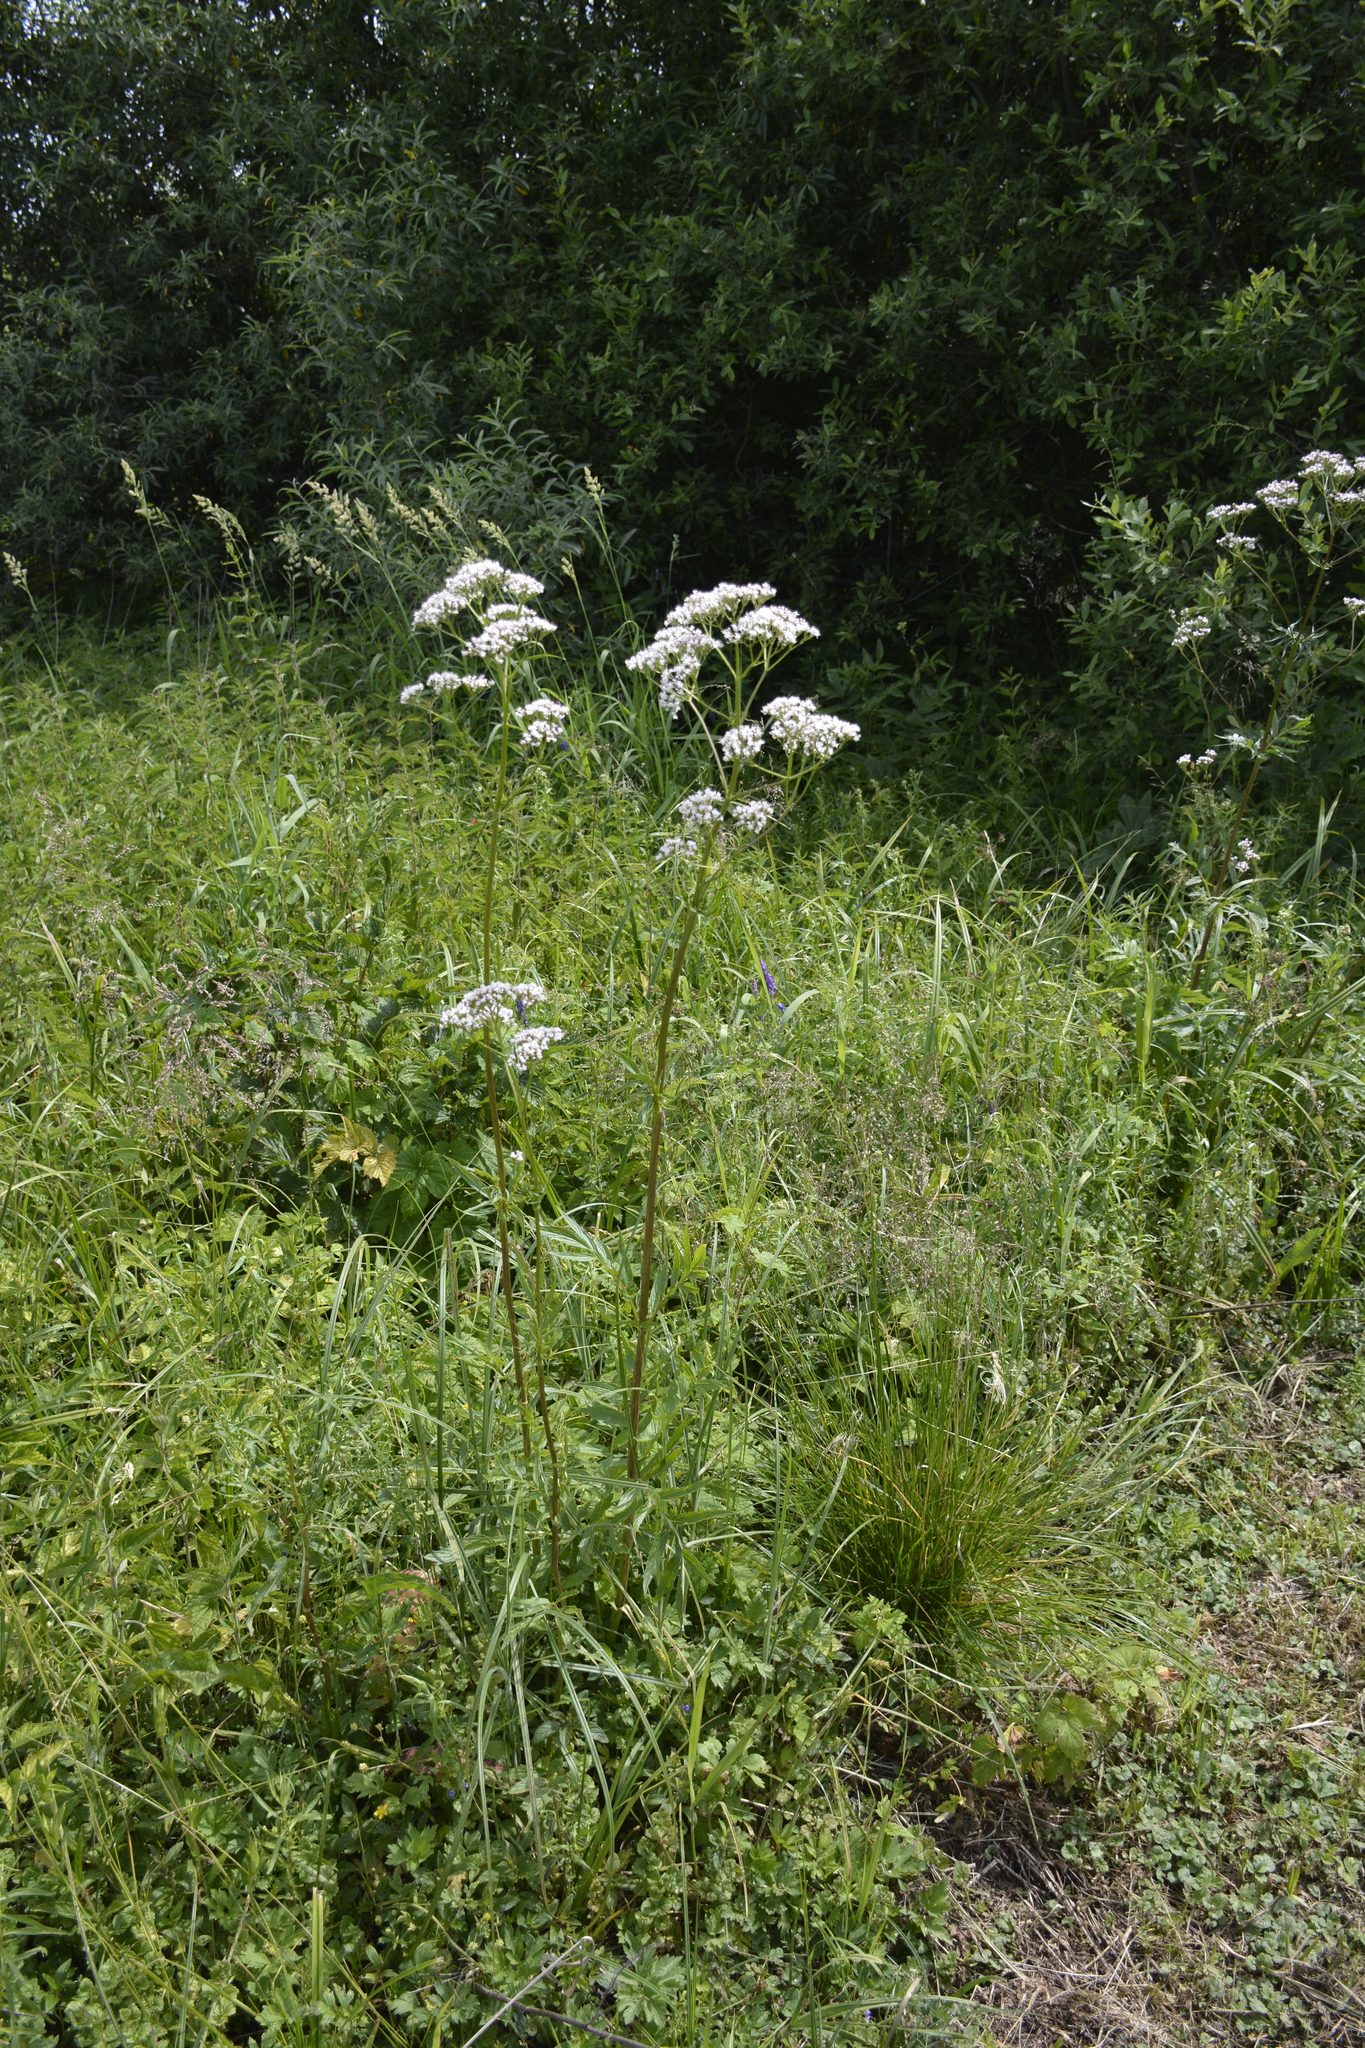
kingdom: Plantae
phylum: Tracheophyta
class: Magnoliopsida
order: Dipsacales
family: Caprifoliaceae
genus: Valeriana
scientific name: Valeriana officinalis
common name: Common valerian
